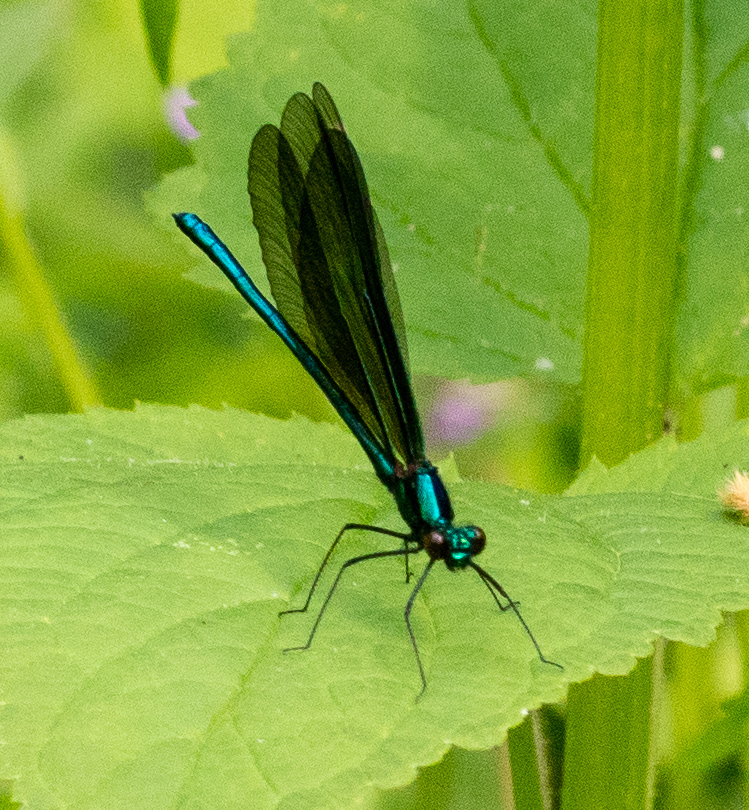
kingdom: Animalia
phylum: Arthropoda
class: Insecta
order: Odonata
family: Calopterygidae
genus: Calopteryx
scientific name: Calopteryx maculata
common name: Ebony jewelwing
